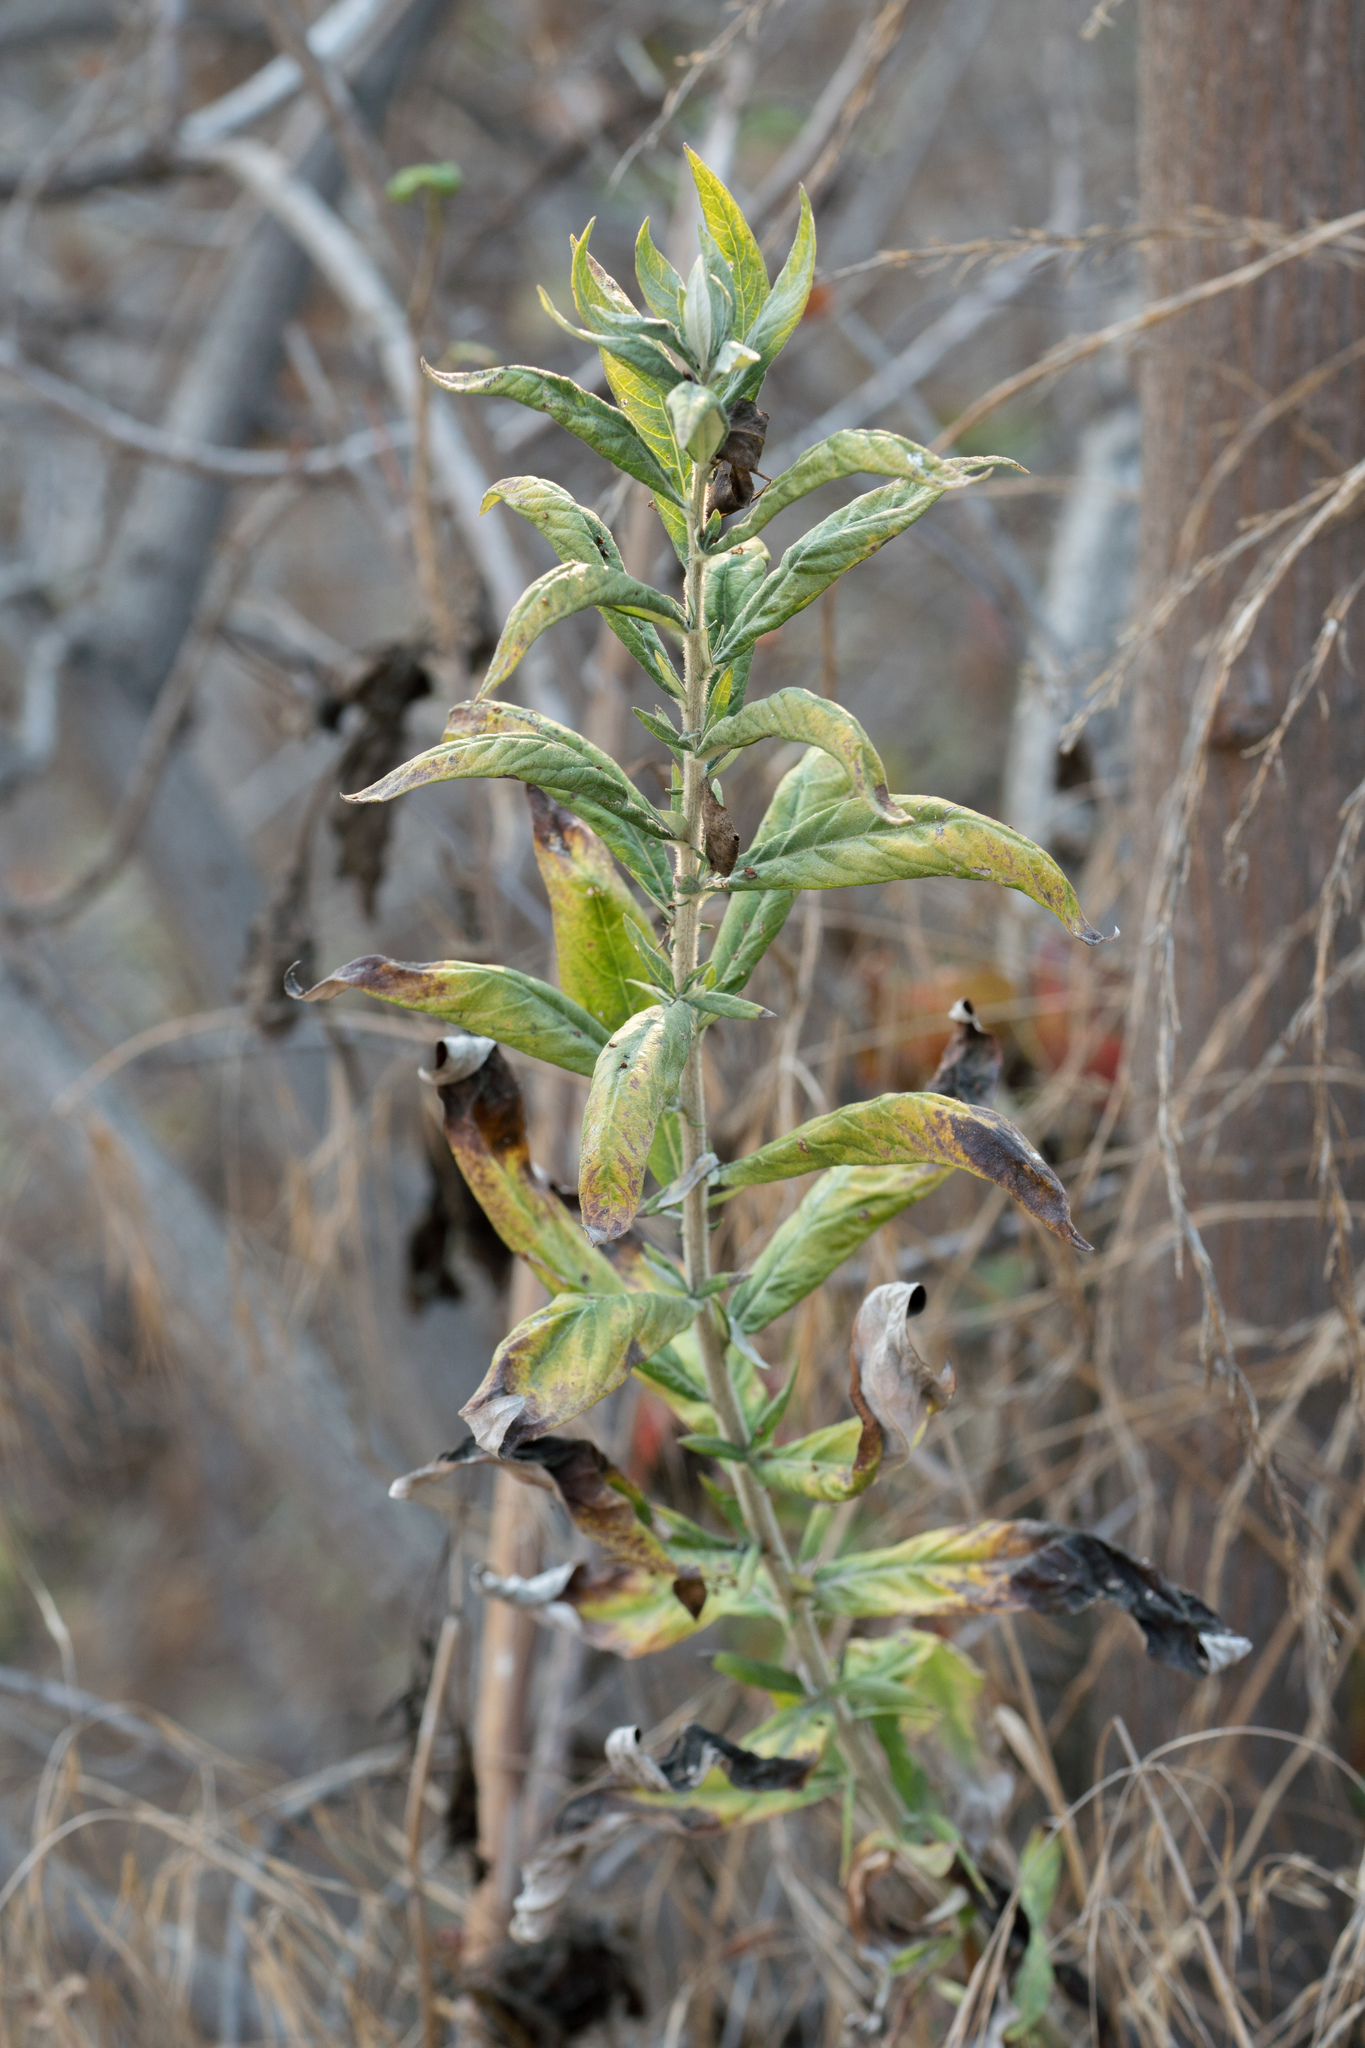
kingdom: Plantae
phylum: Tracheophyta
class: Magnoliopsida
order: Asterales
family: Asteraceae
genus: Artemisia
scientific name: Artemisia douglasiana
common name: Northwest mugwort
